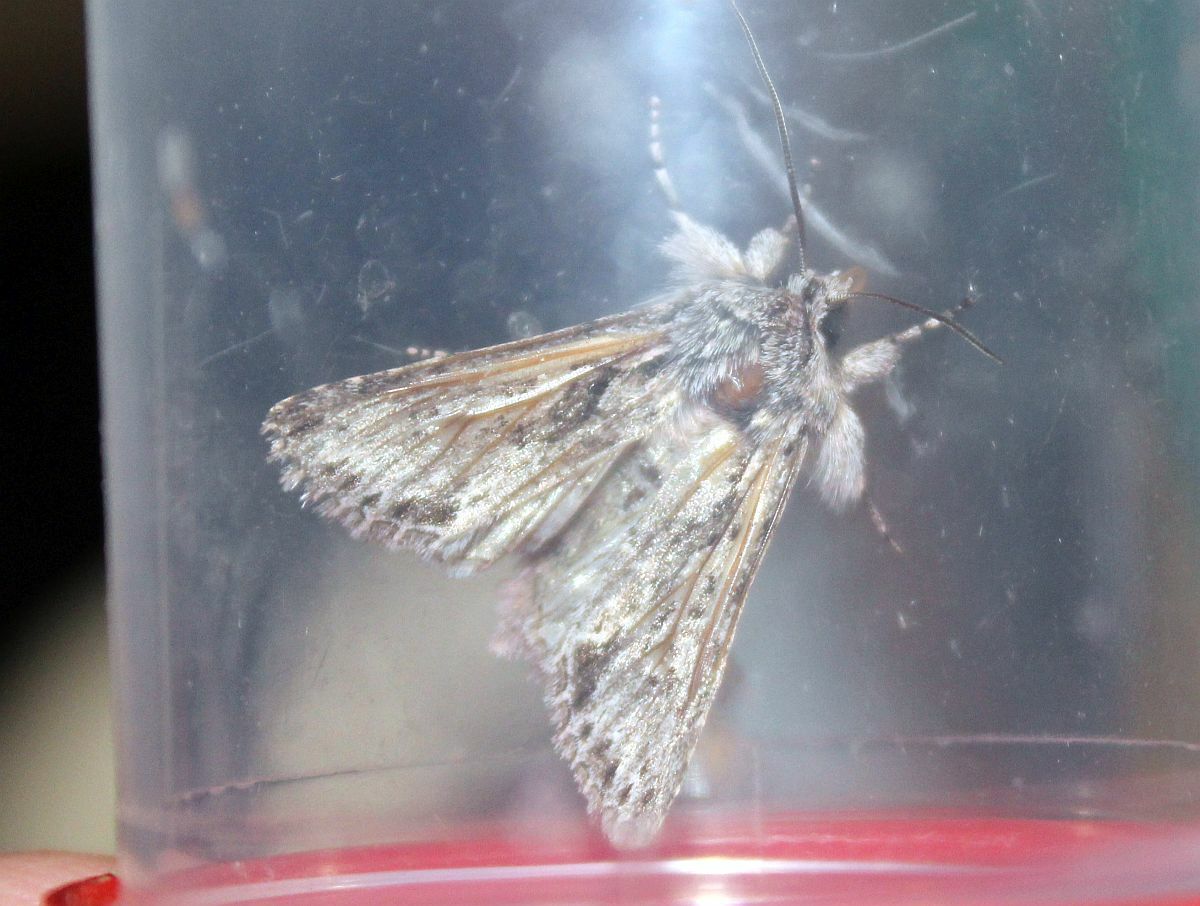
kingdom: Animalia
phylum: Arthropoda
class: Insecta
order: Lepidoptera
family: Noctuidae
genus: Xylocampa
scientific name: Xylocampa areola
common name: Early grey
